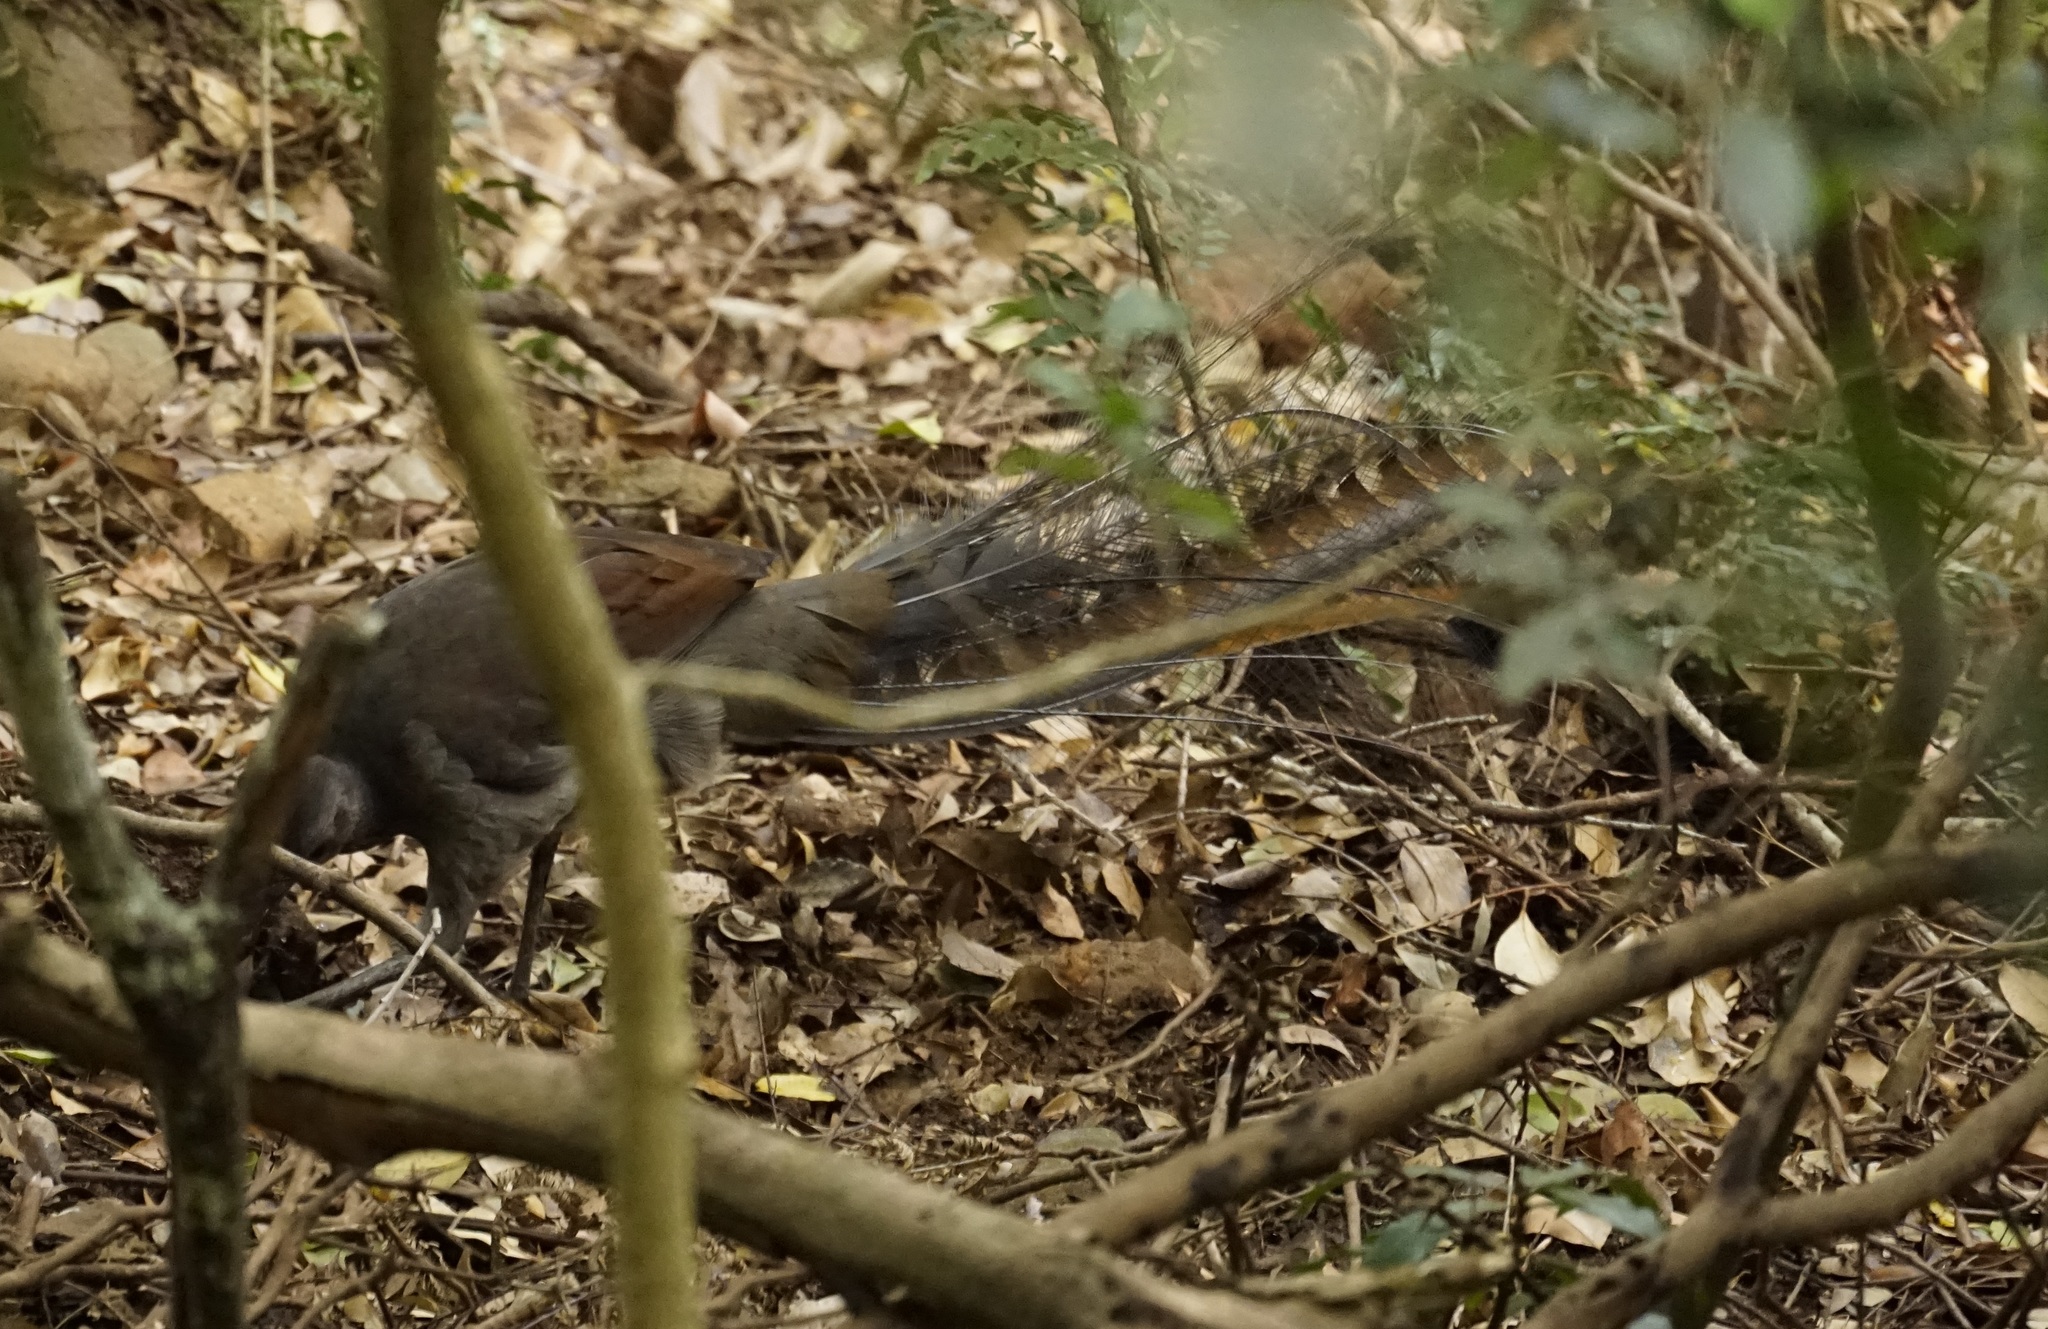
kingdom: Animalia
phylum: Chordata
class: Aves
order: Passeriformes
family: Menuridae
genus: Menura
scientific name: Menura novaehollandiae
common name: Superb lyrebird
